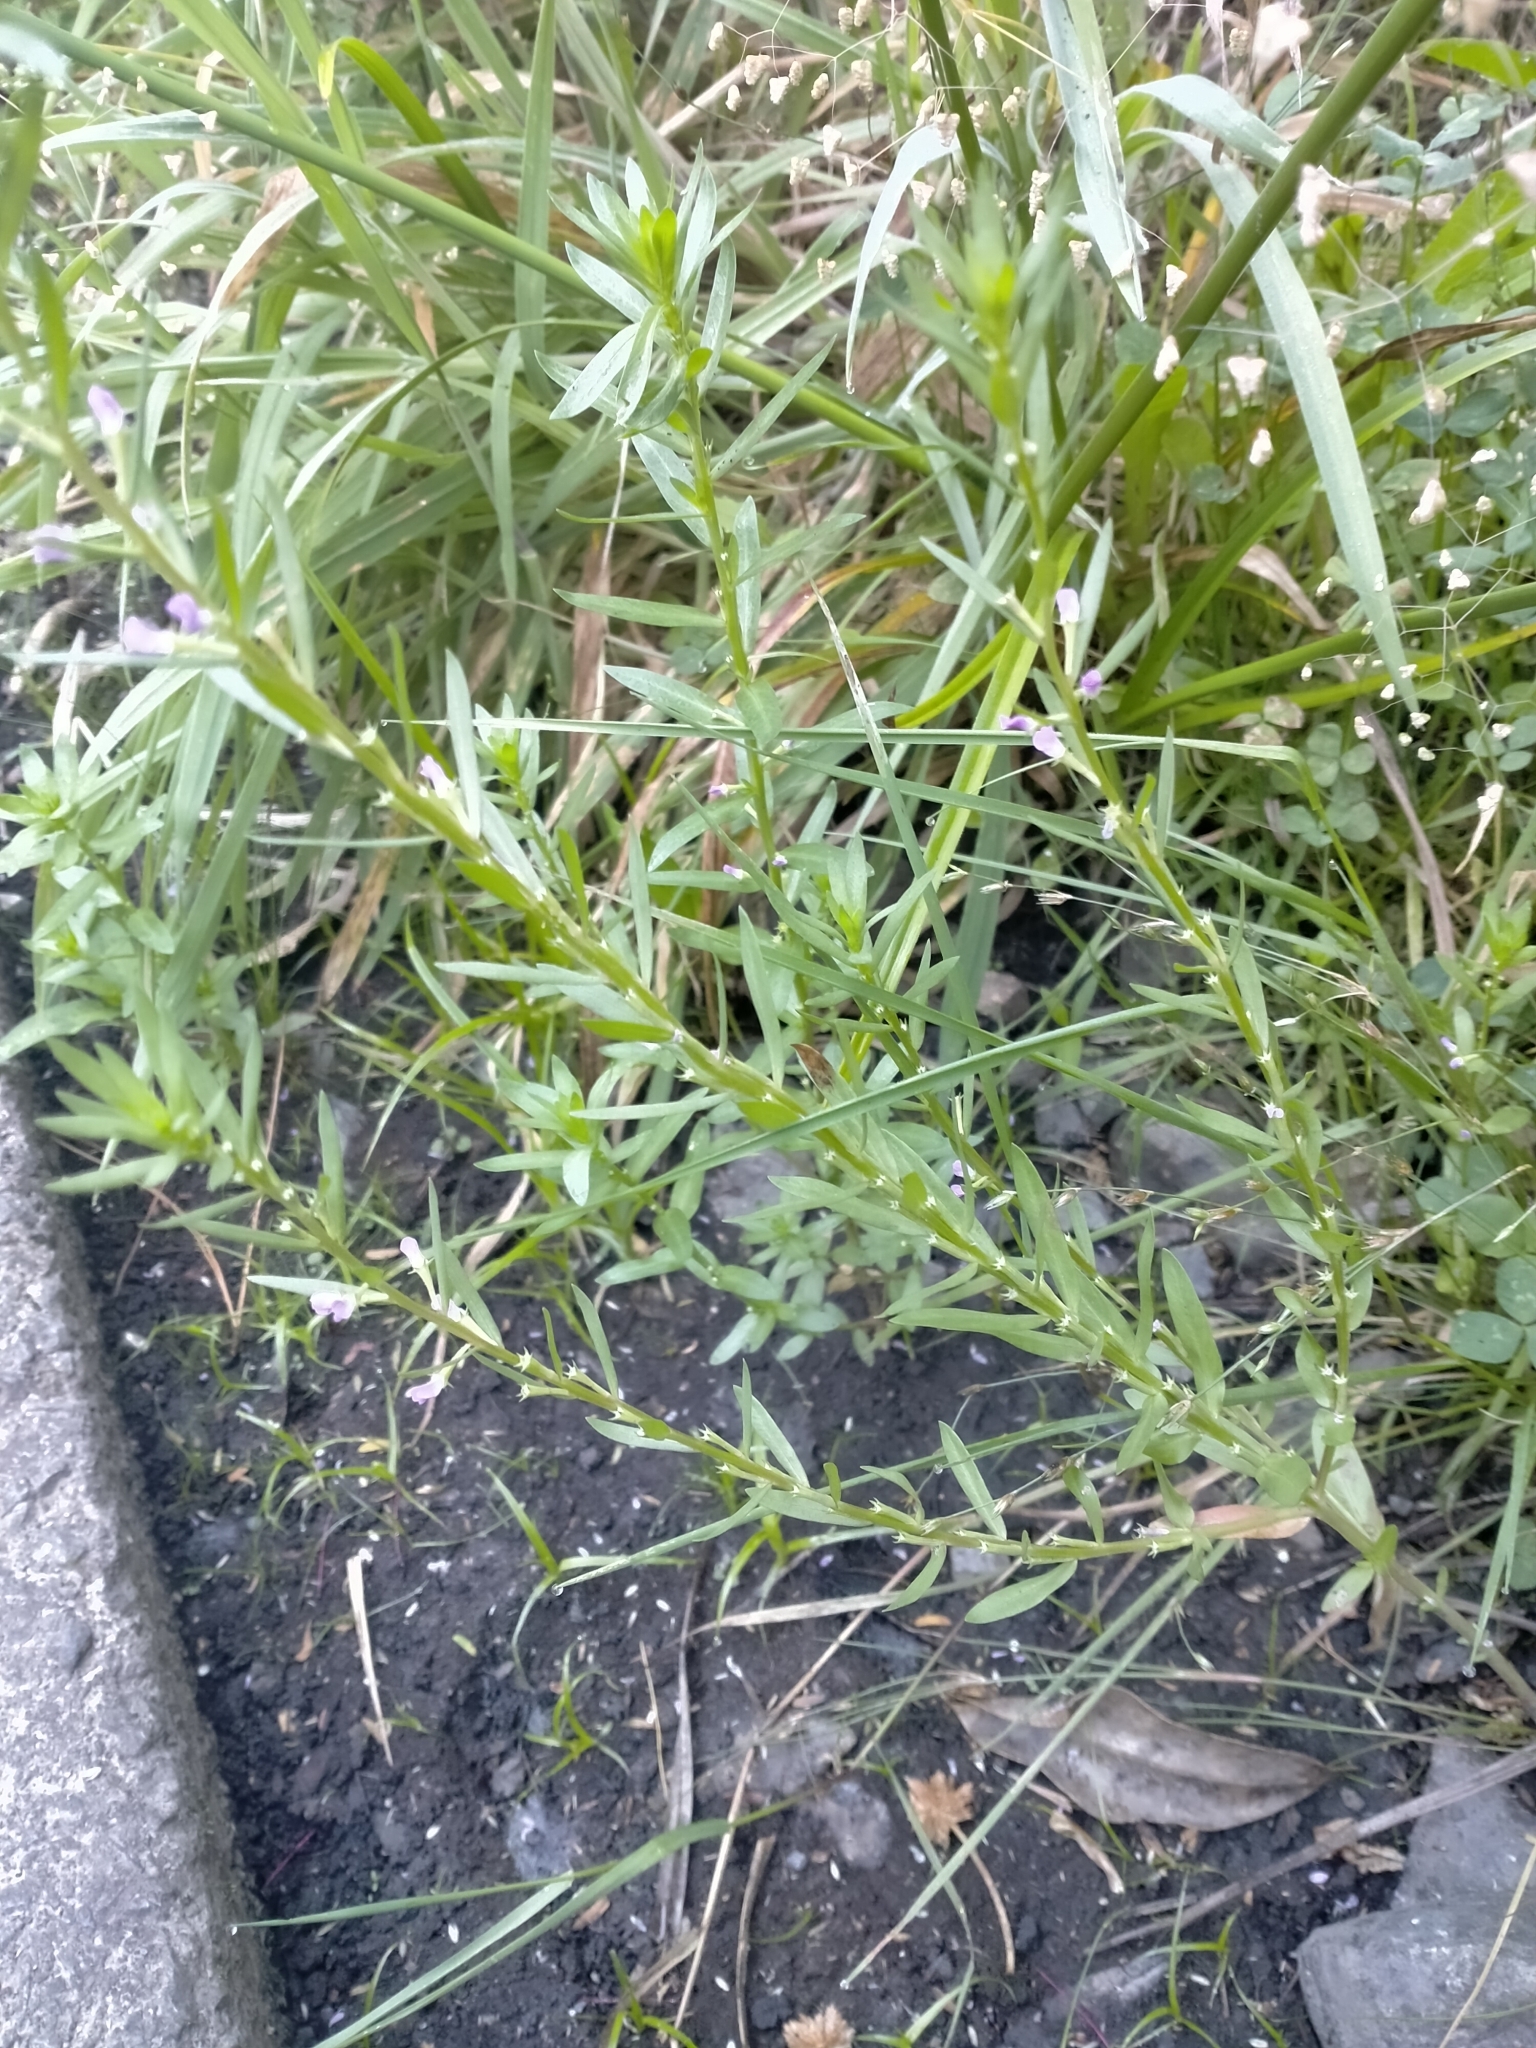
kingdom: Plantae
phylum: Tracheophyta
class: Magnoliopsida
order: Myrtales
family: Lythraceae
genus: Lythrum
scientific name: Lythrum hyssopifolia
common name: Grass-poly
